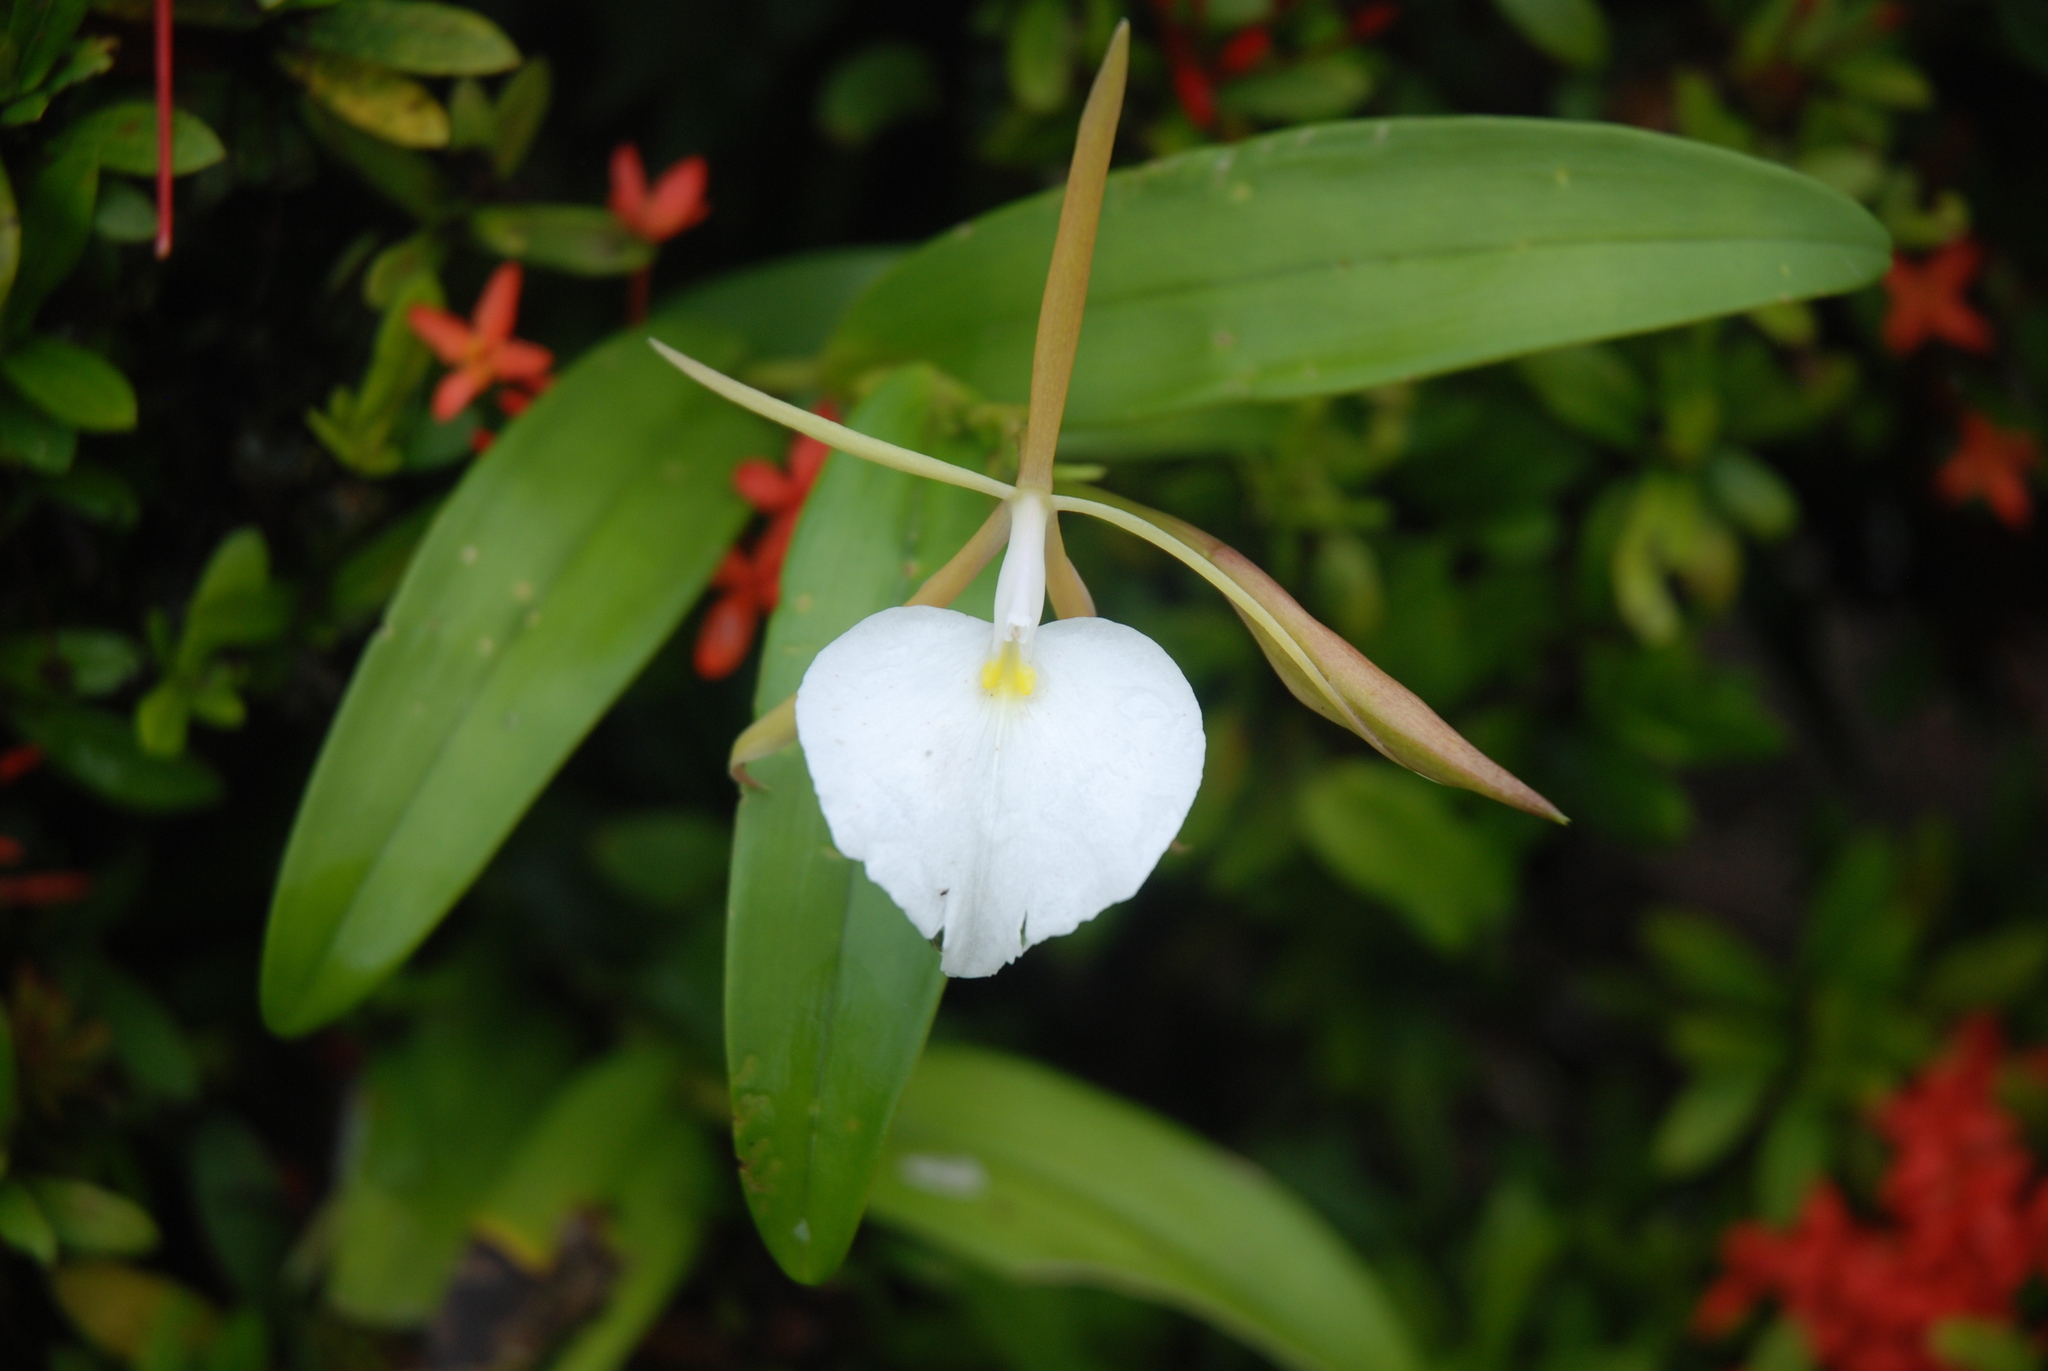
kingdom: Plantae
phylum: Tracheophyta
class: Liliopsida
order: Asparagales
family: Orchidaceae
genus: Epidendrum
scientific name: Epidendrum eburneum
